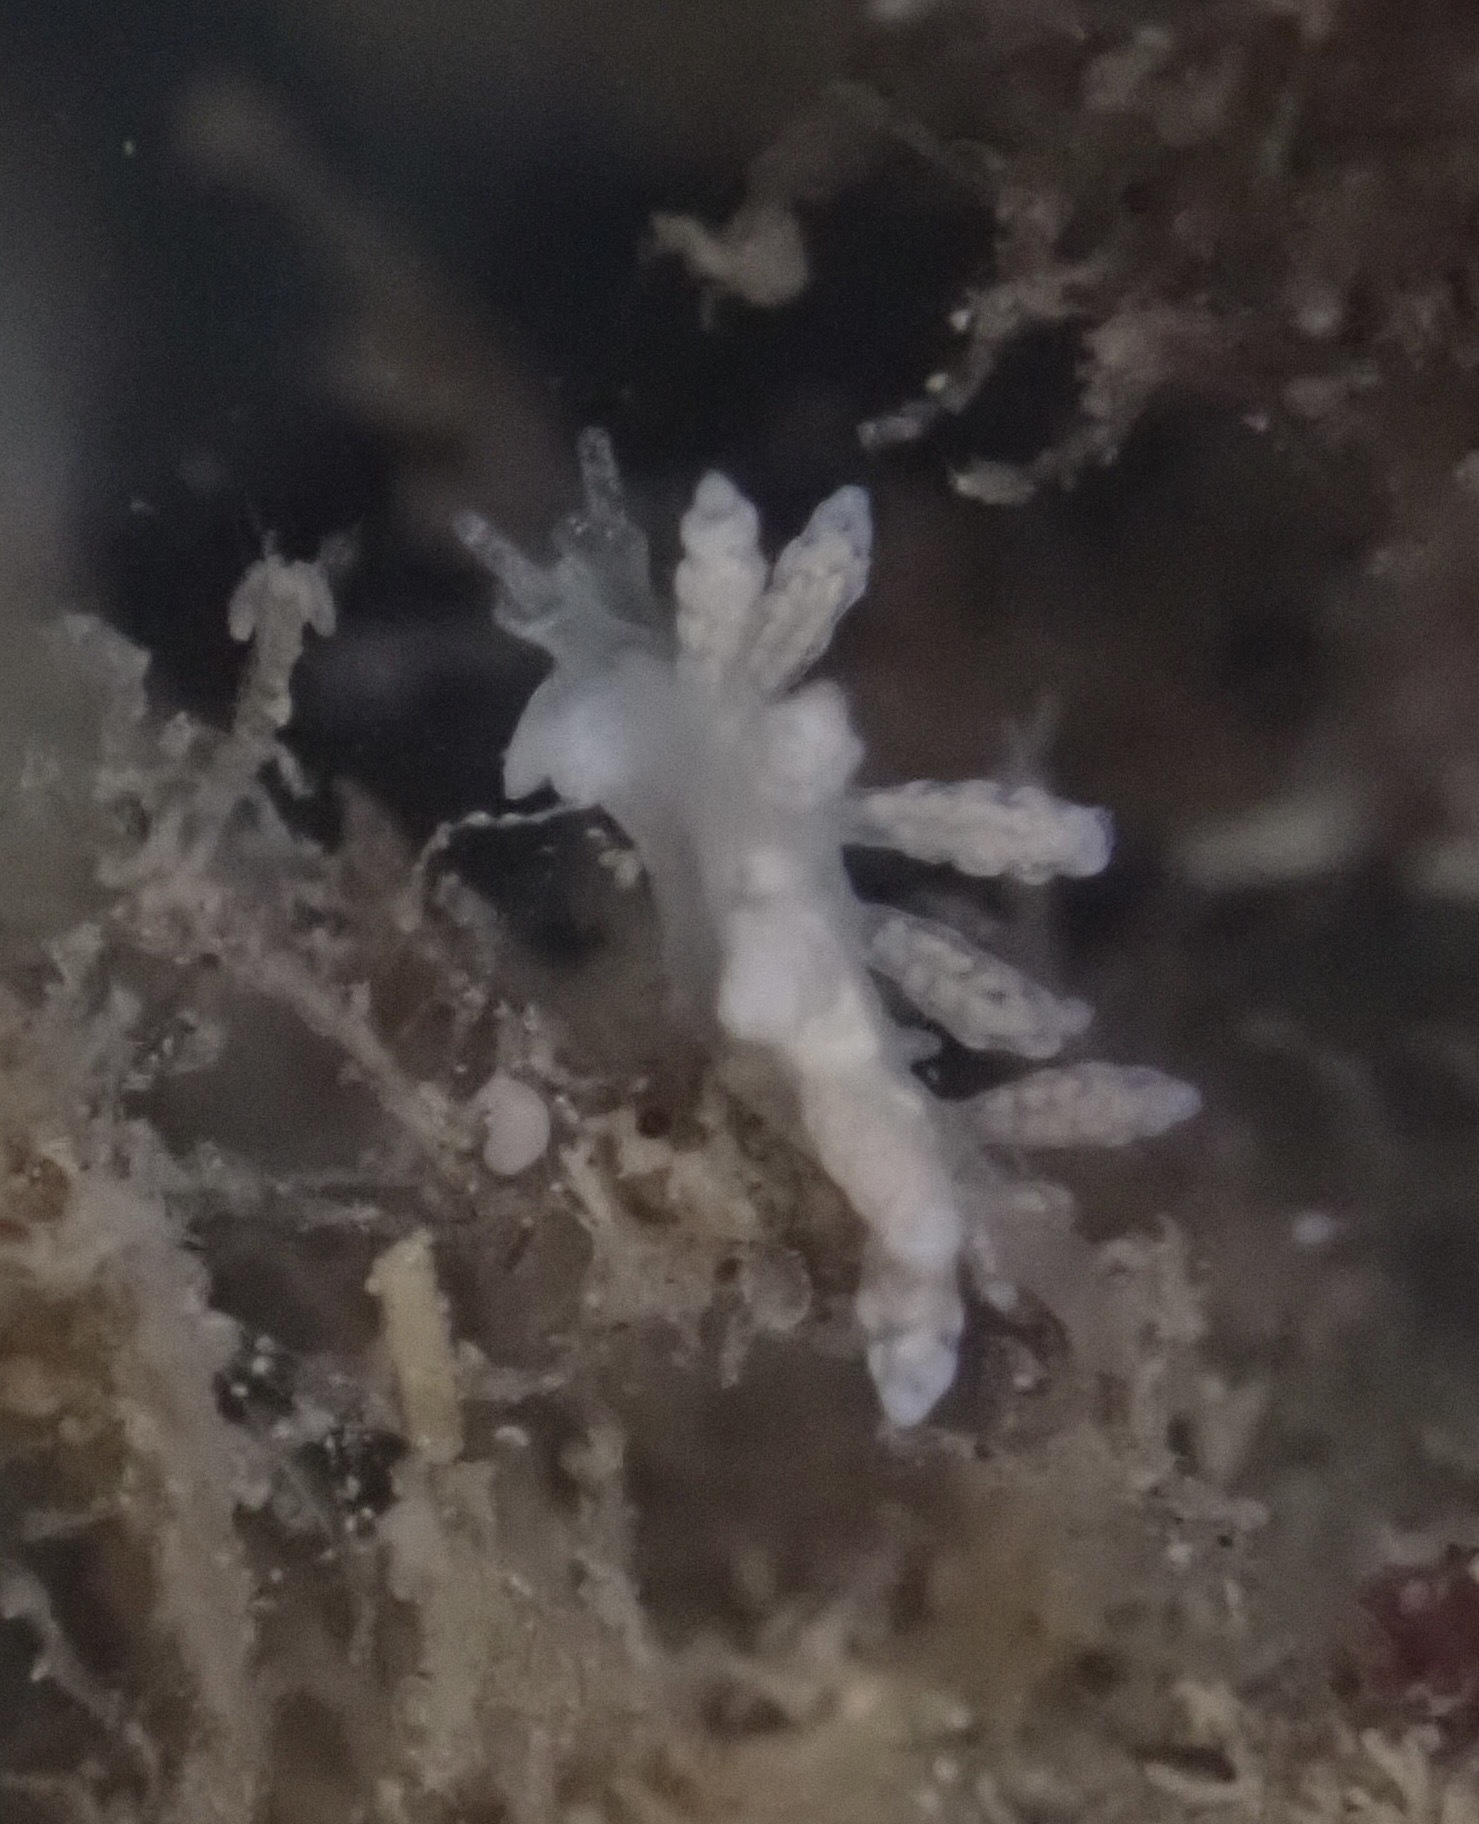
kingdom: Animalia
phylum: Mollusca
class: Gastropoda
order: Nudibranchia
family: Dotidae
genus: Doto
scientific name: Doto amyra
